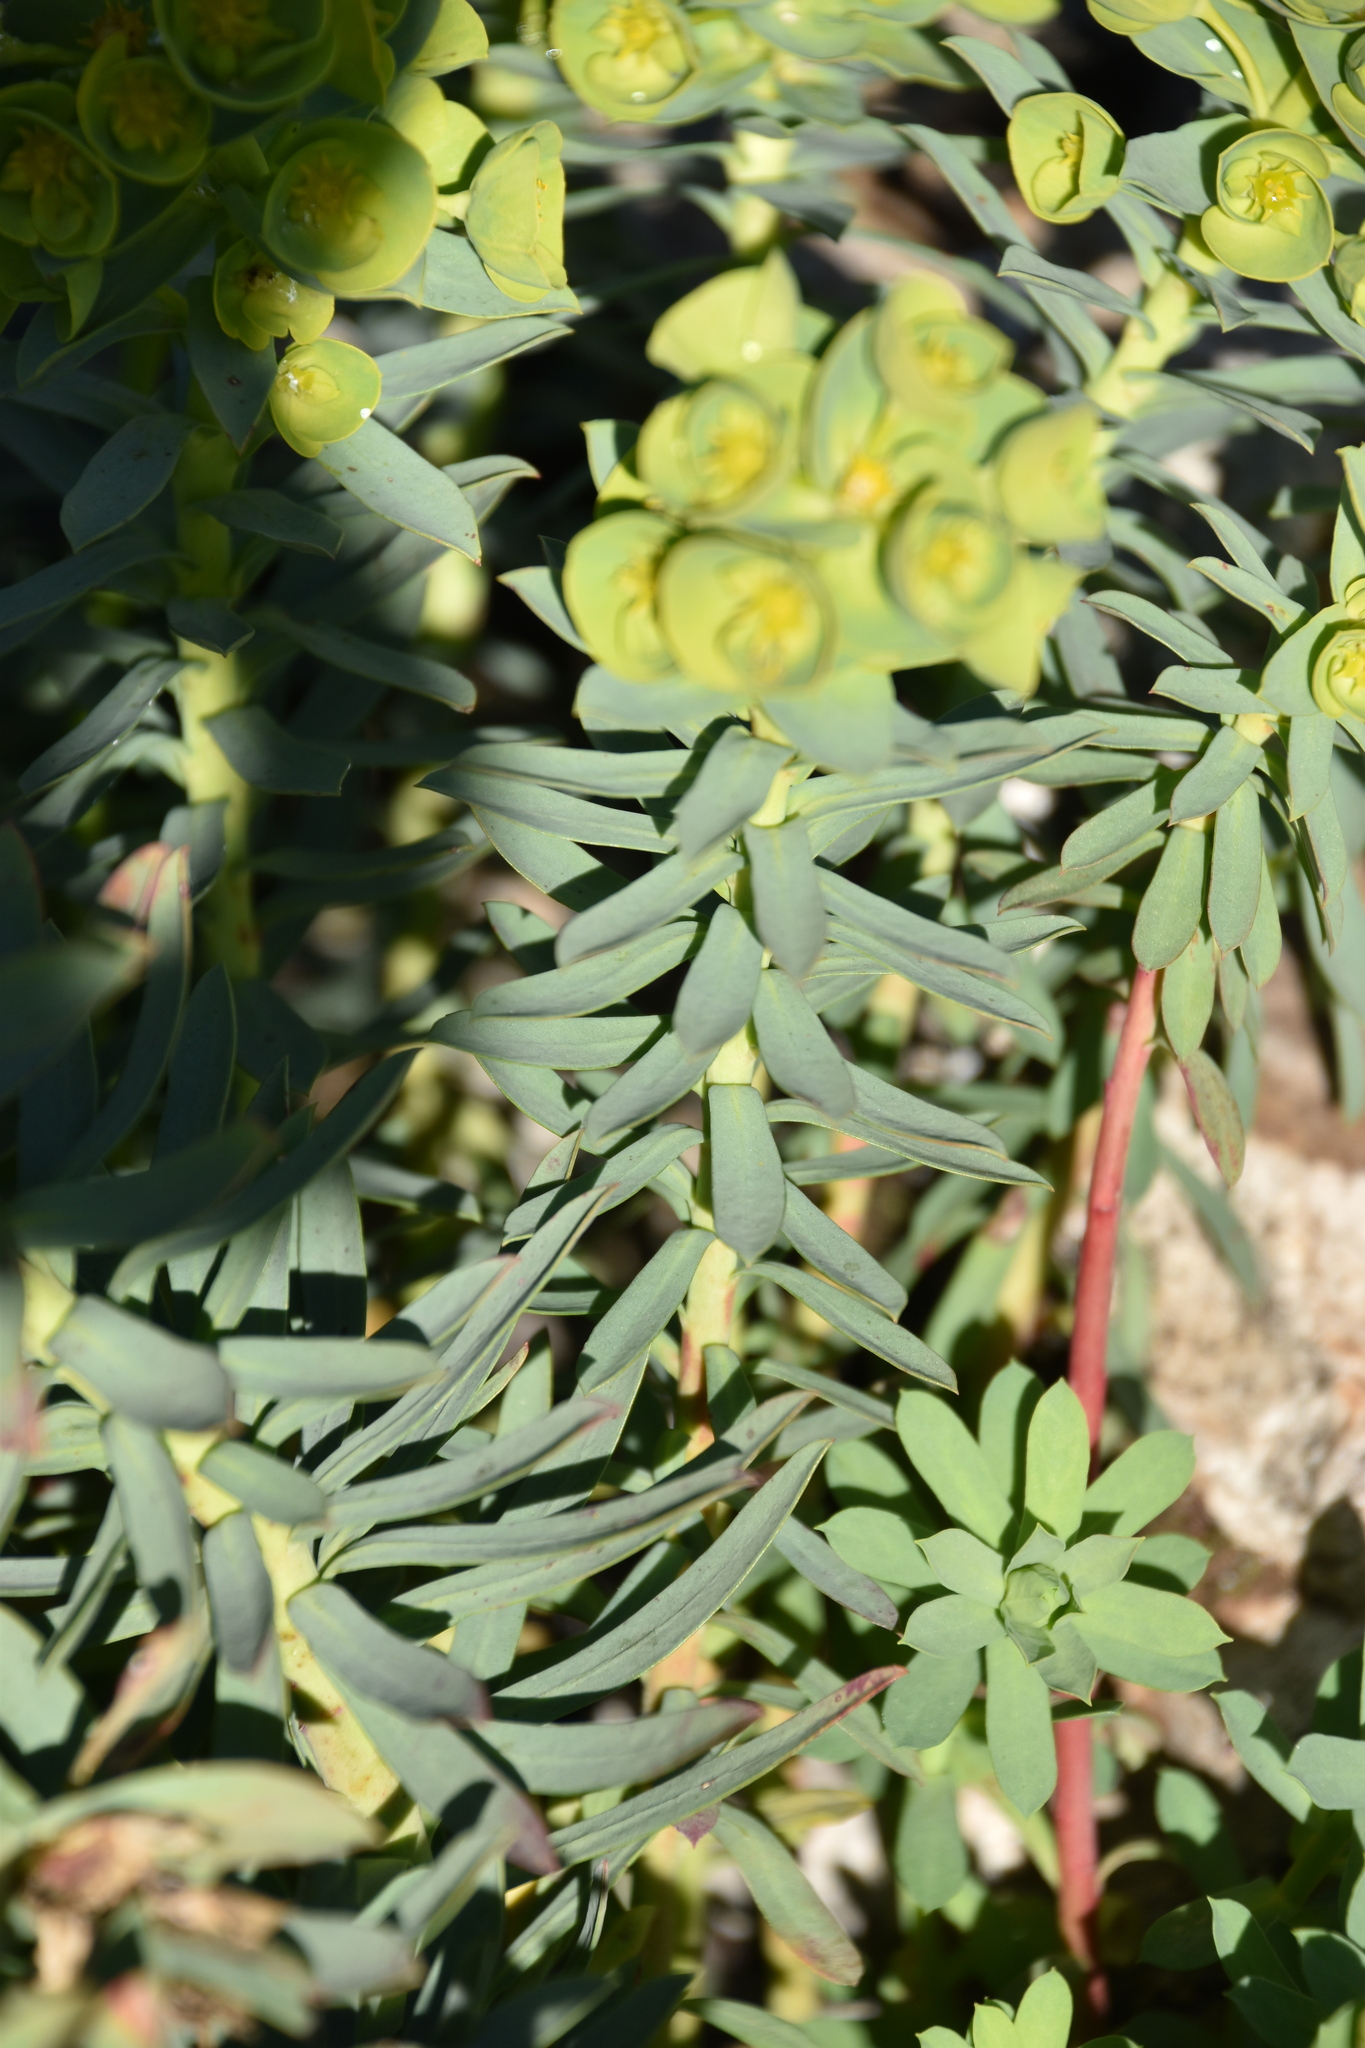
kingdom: Plantae
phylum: Tracheophyta
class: Magnoliopsida
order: Malpighiales
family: Euphorbiaceae
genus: Euphorbia
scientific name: Euphorbia segetalis
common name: Corn spurge
